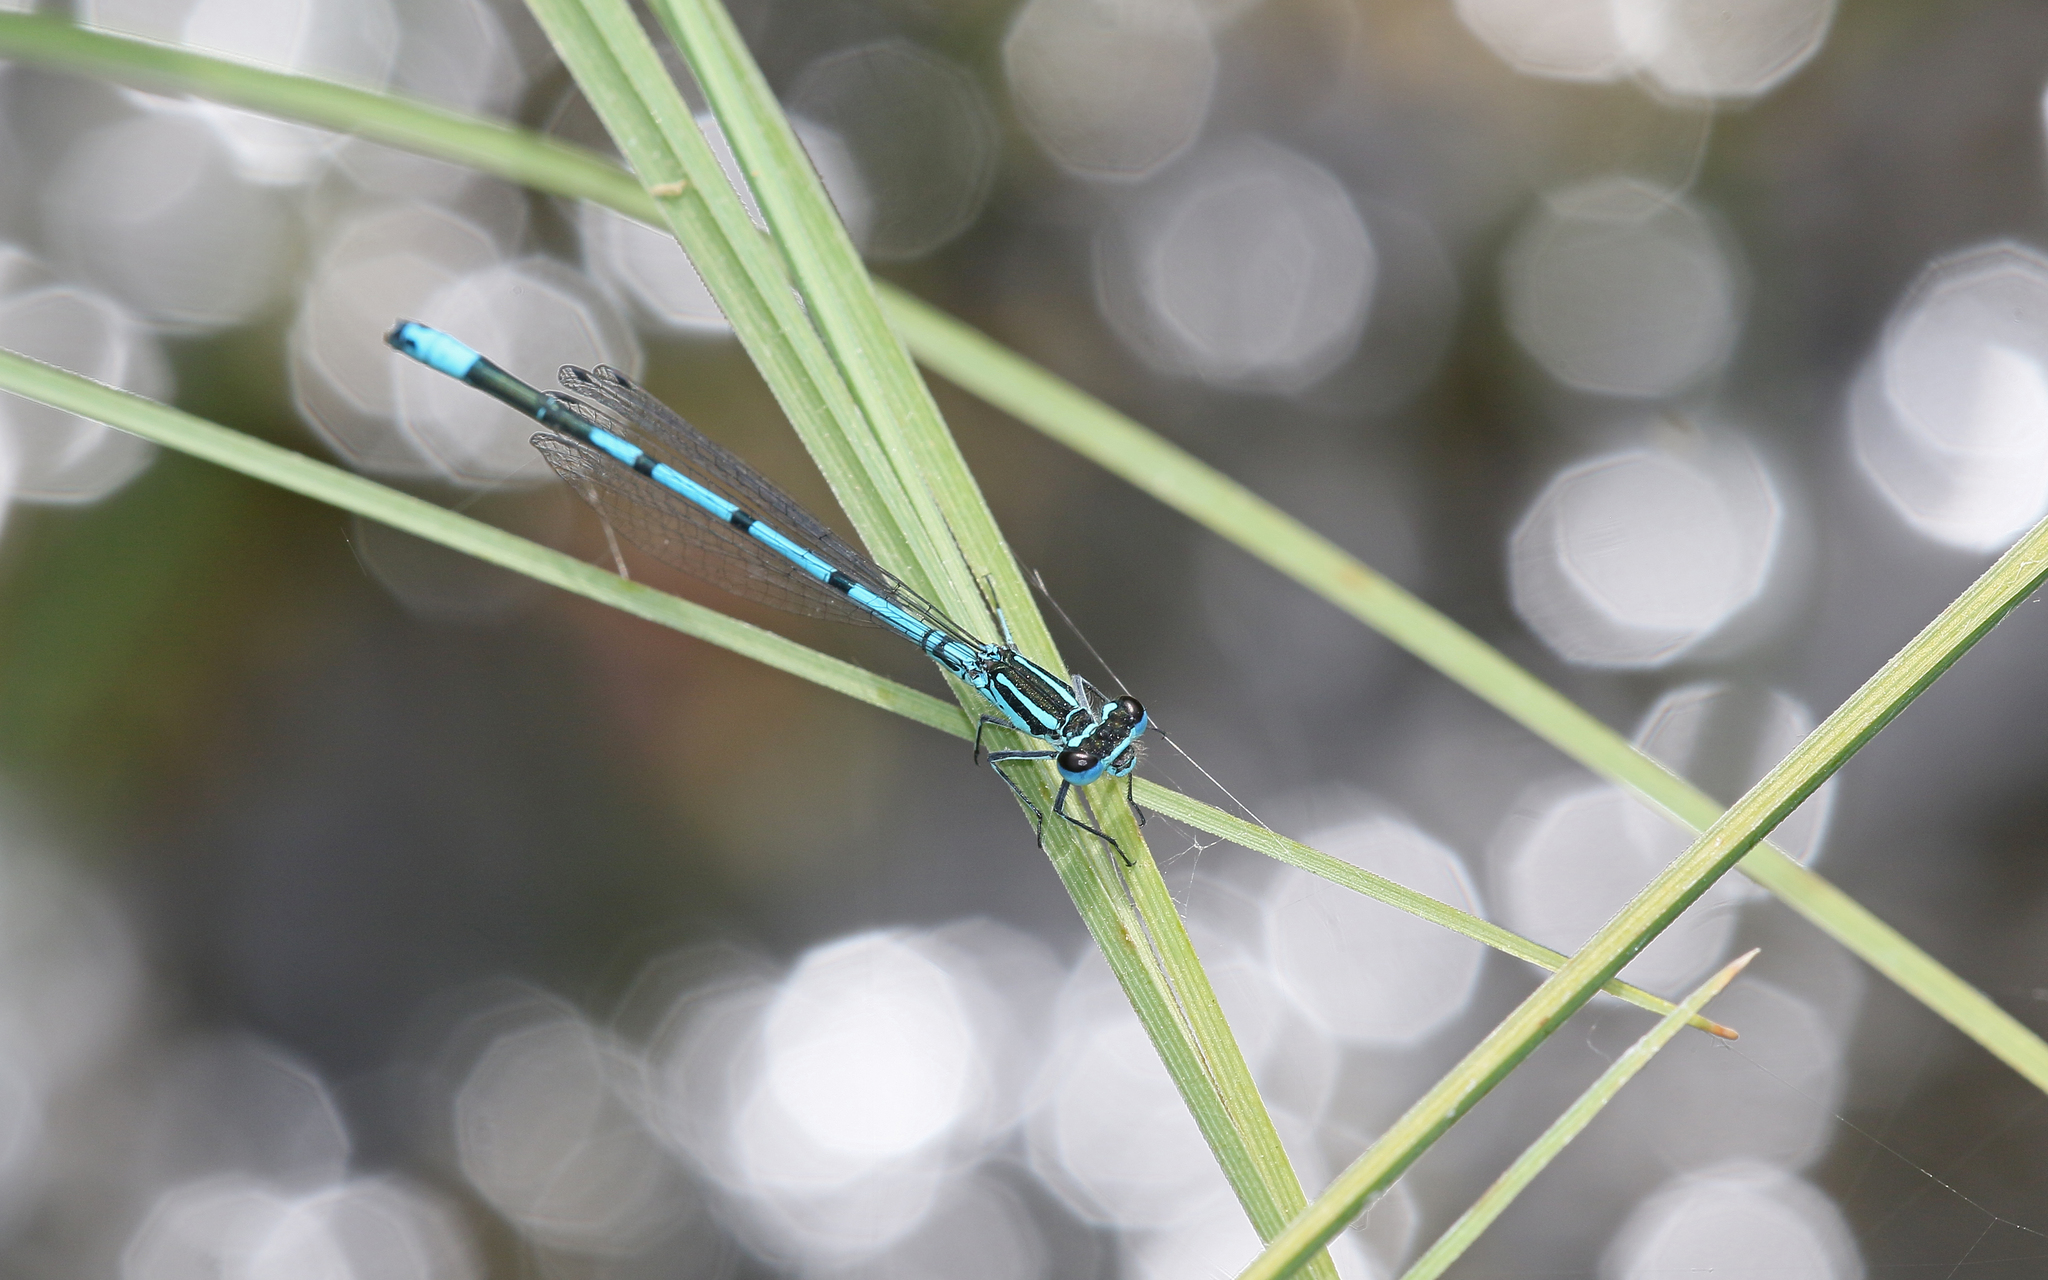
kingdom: Animalia
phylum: Arthropoda
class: Insecta
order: Odonata
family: Coenagrionidae
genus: Coenagrion
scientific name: Coenagrion puella
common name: Azure damselfly
